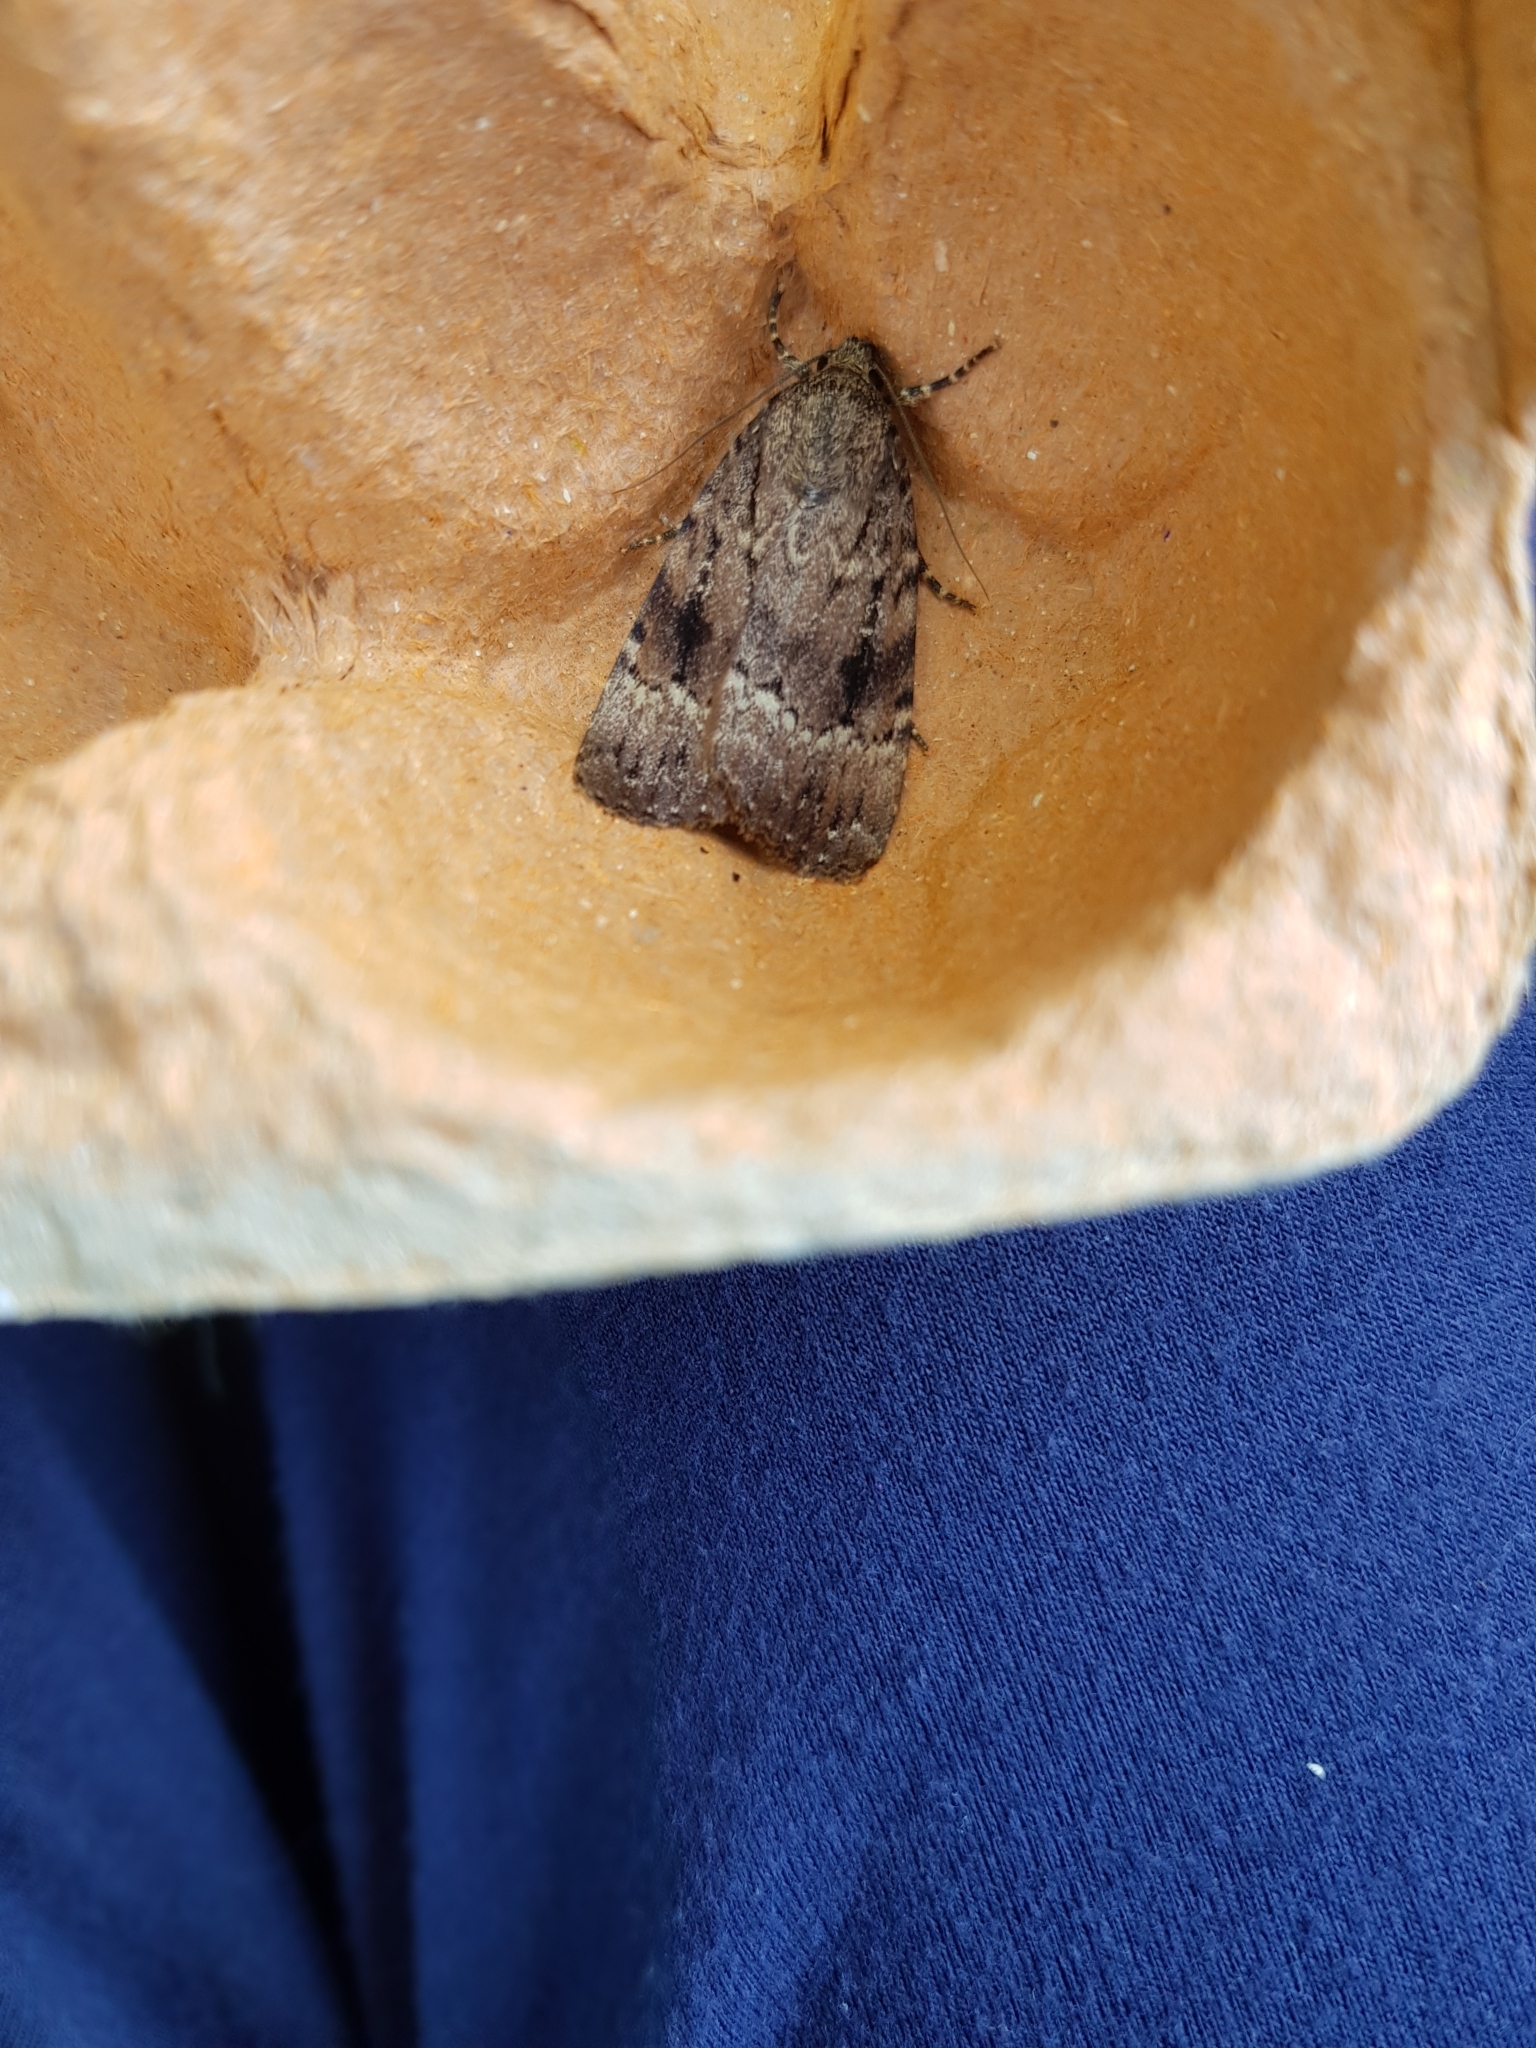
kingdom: Animalia
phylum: Arthropoda
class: Insecta
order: Lepidoptera
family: Noctuidae
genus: Amphipyra
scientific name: Amphipyra pyramidea
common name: Copper underwing
